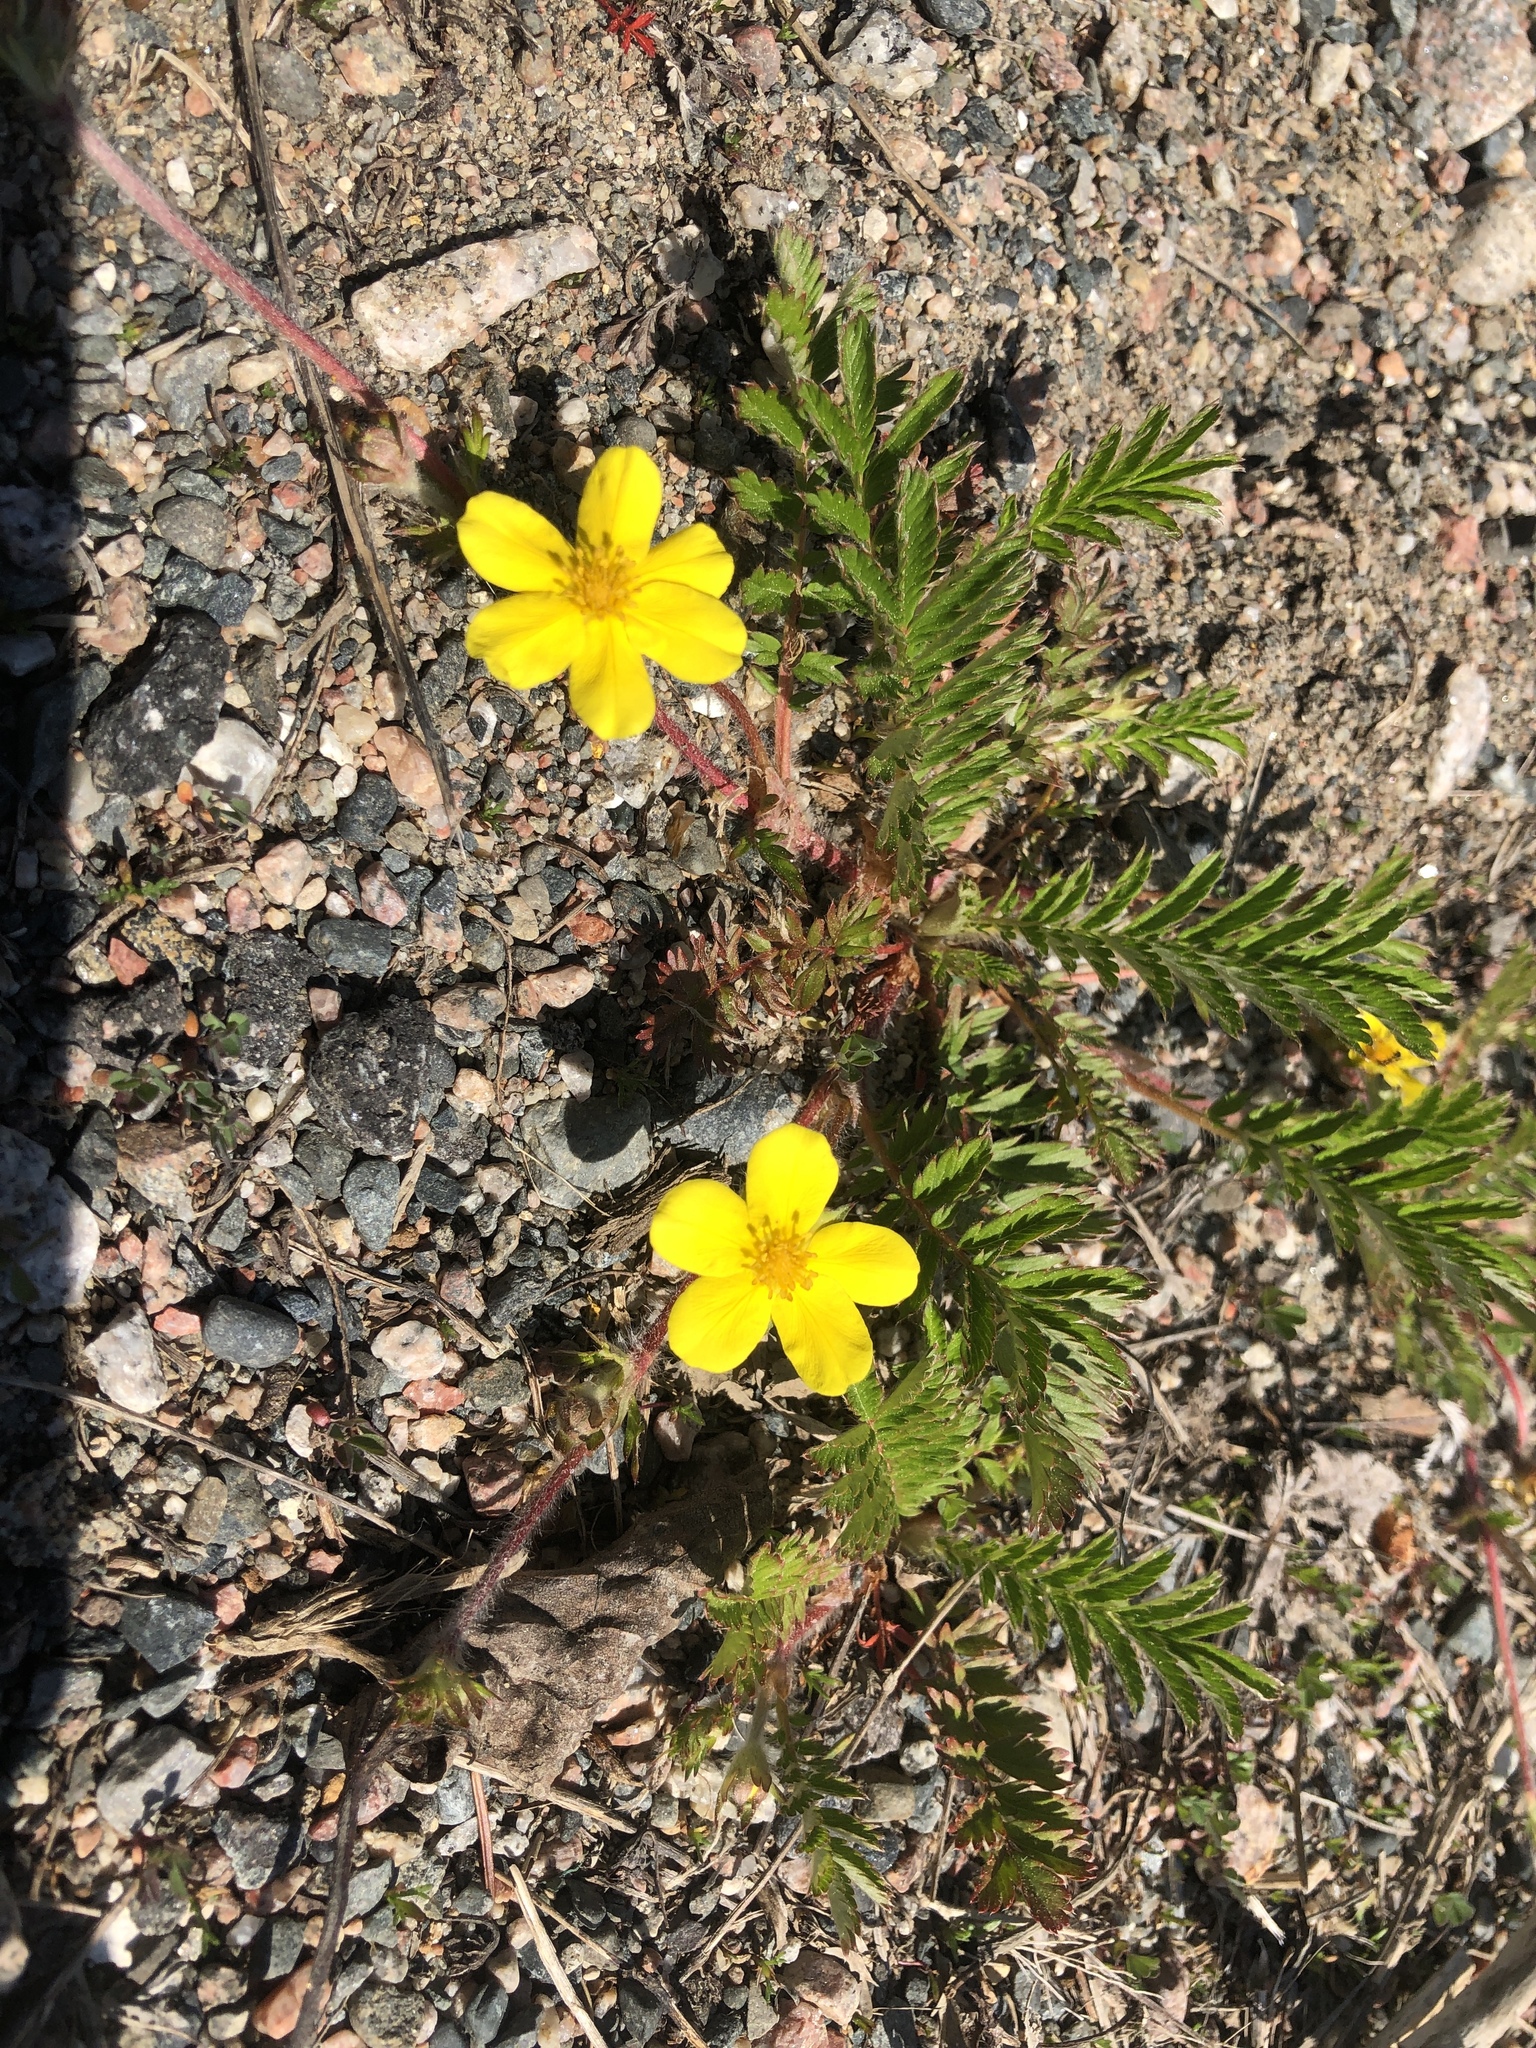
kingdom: Plantae
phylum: Tracheophyta
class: Magnoliopsida
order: Rosales
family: Rosaceae
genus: Argentina
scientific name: Argentina anserina
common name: Common silverweed
